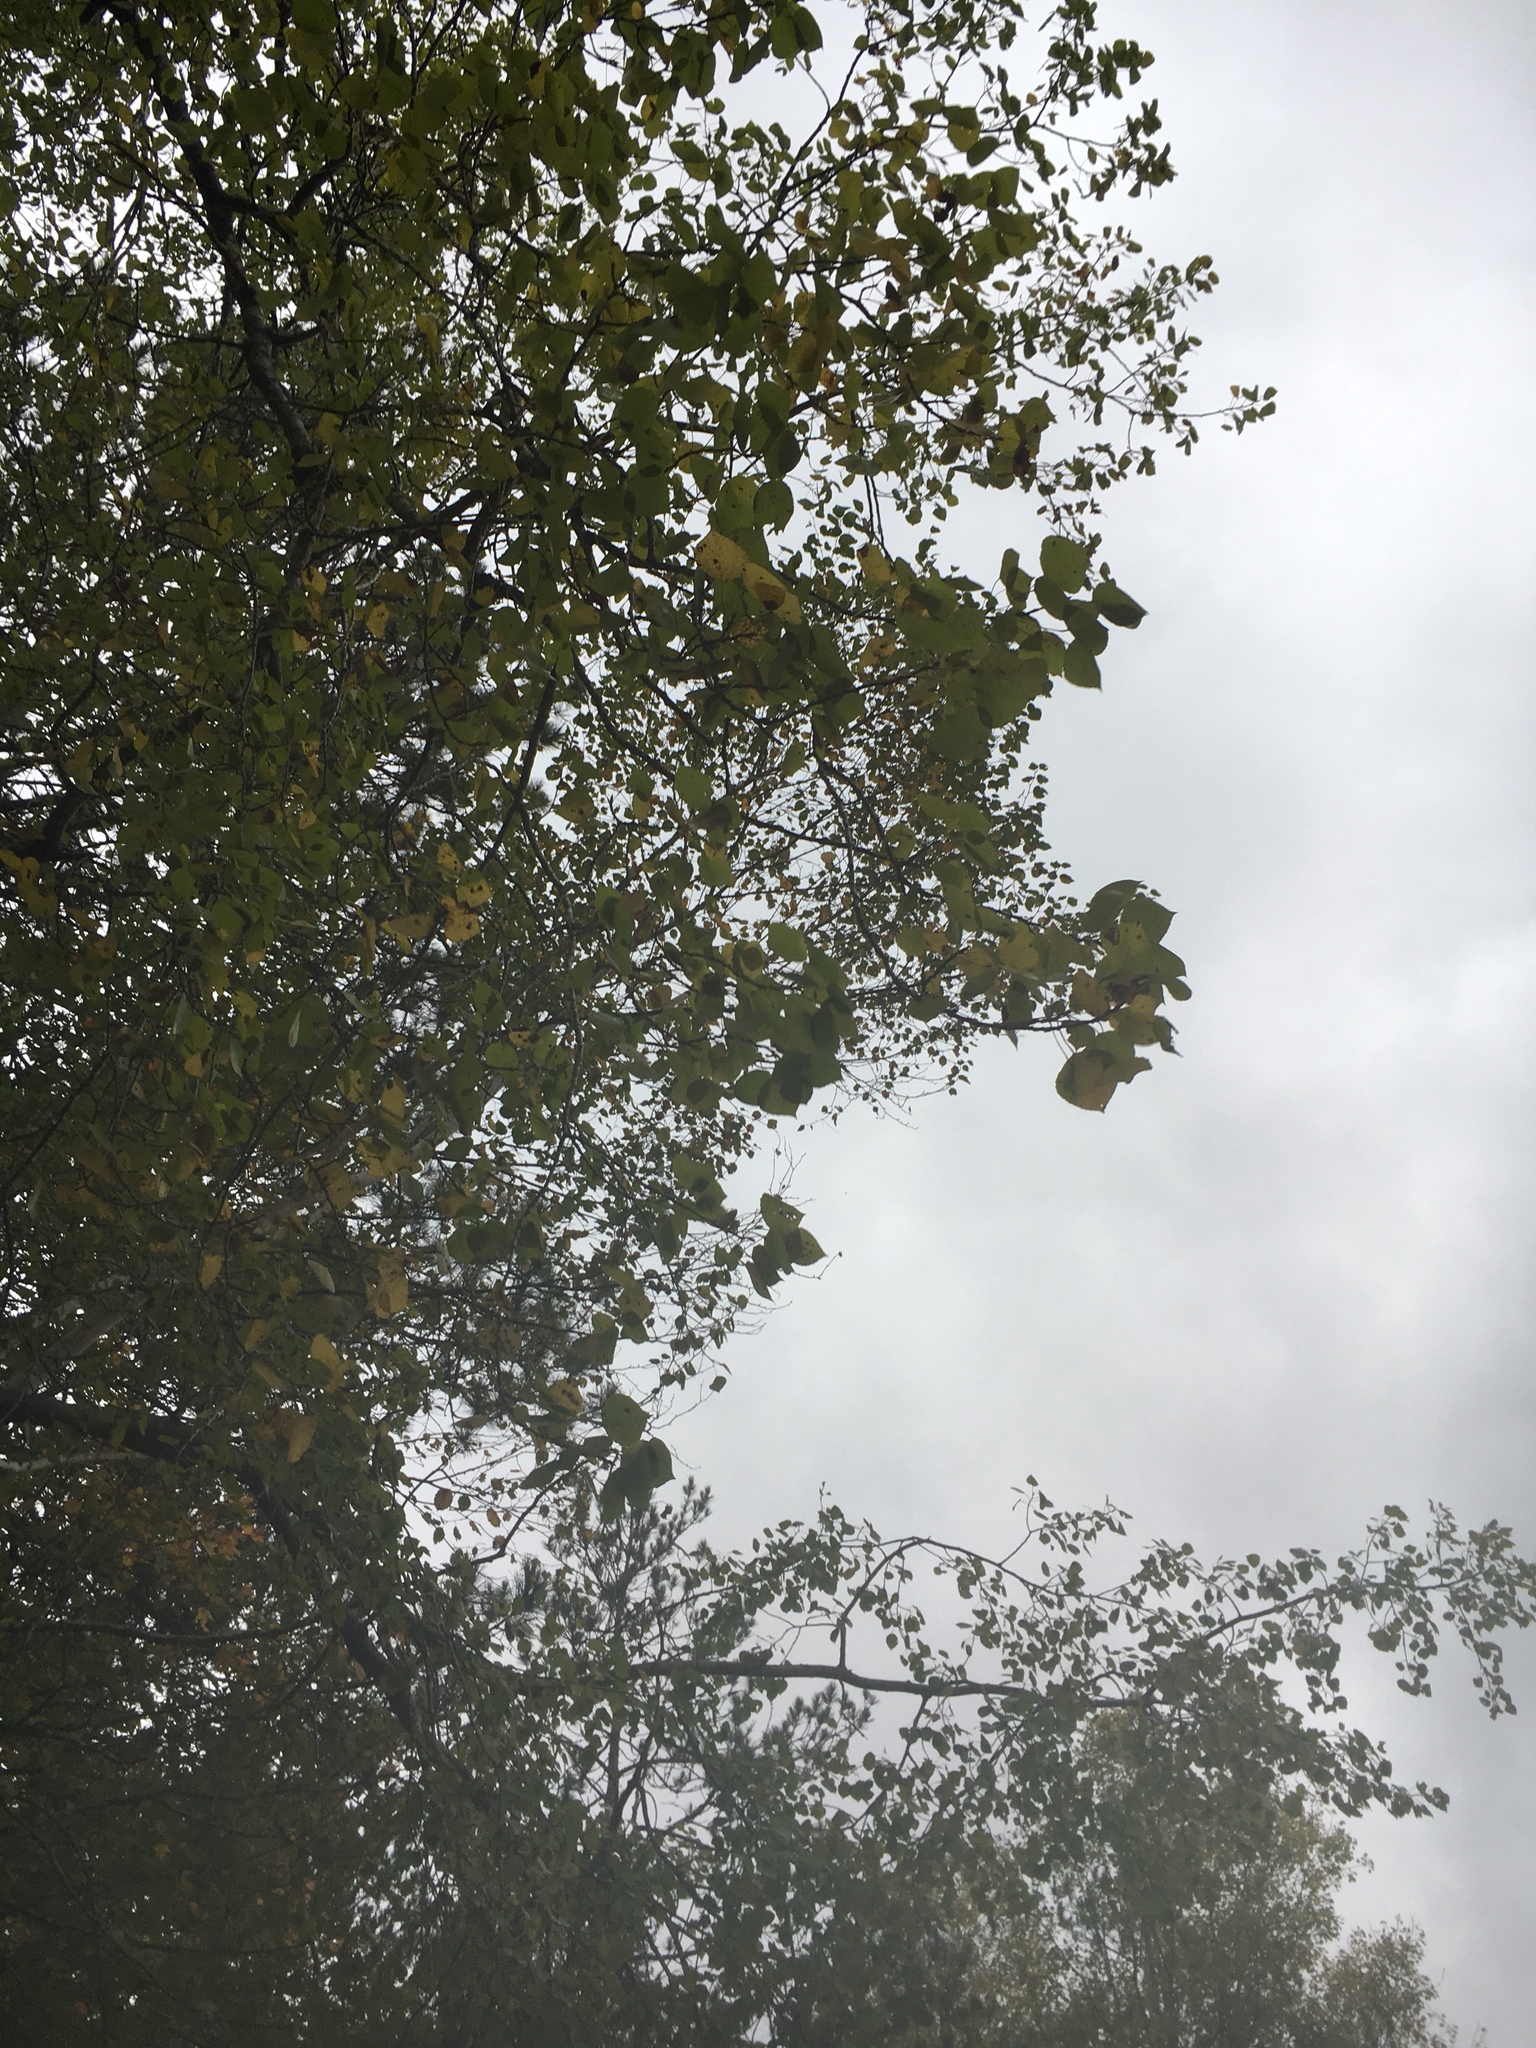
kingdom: Plantae
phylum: Tracheophyta
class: Magnoliopsida
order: Malpighiales
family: Salicaceae
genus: Populus
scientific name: Populus tremuloides
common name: Quaking aspen
